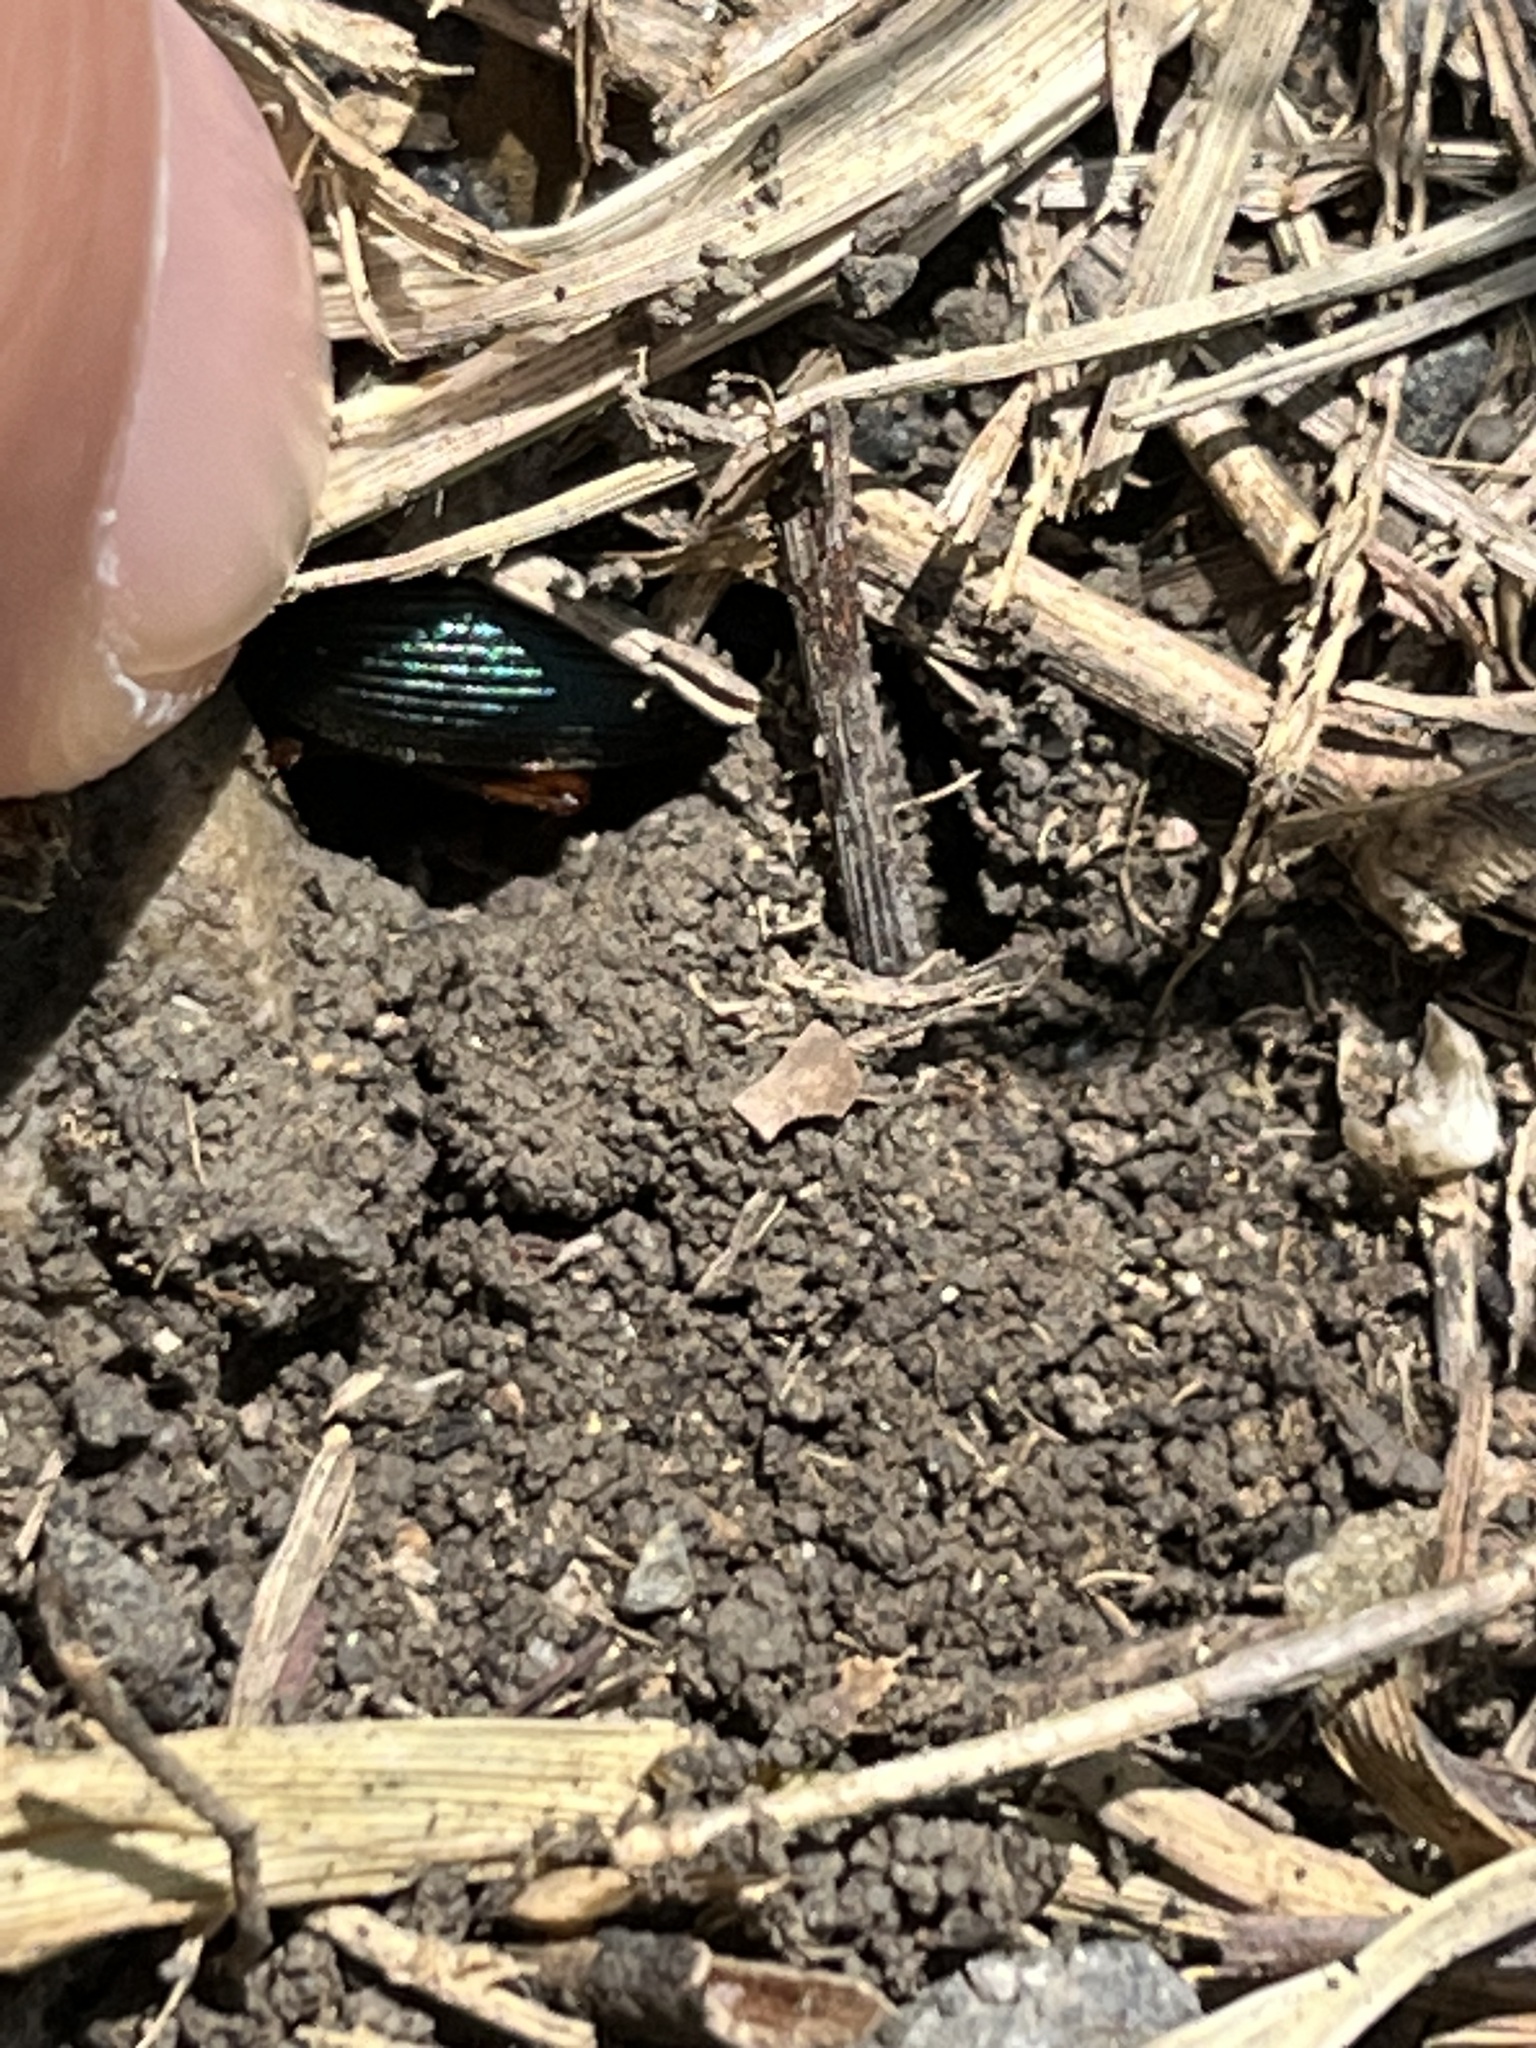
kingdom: Animalia
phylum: Arthropoda
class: Insecta
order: Coleoptera
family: Carabidae
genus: Chlaenius
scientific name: Chlaenius coeruleus
